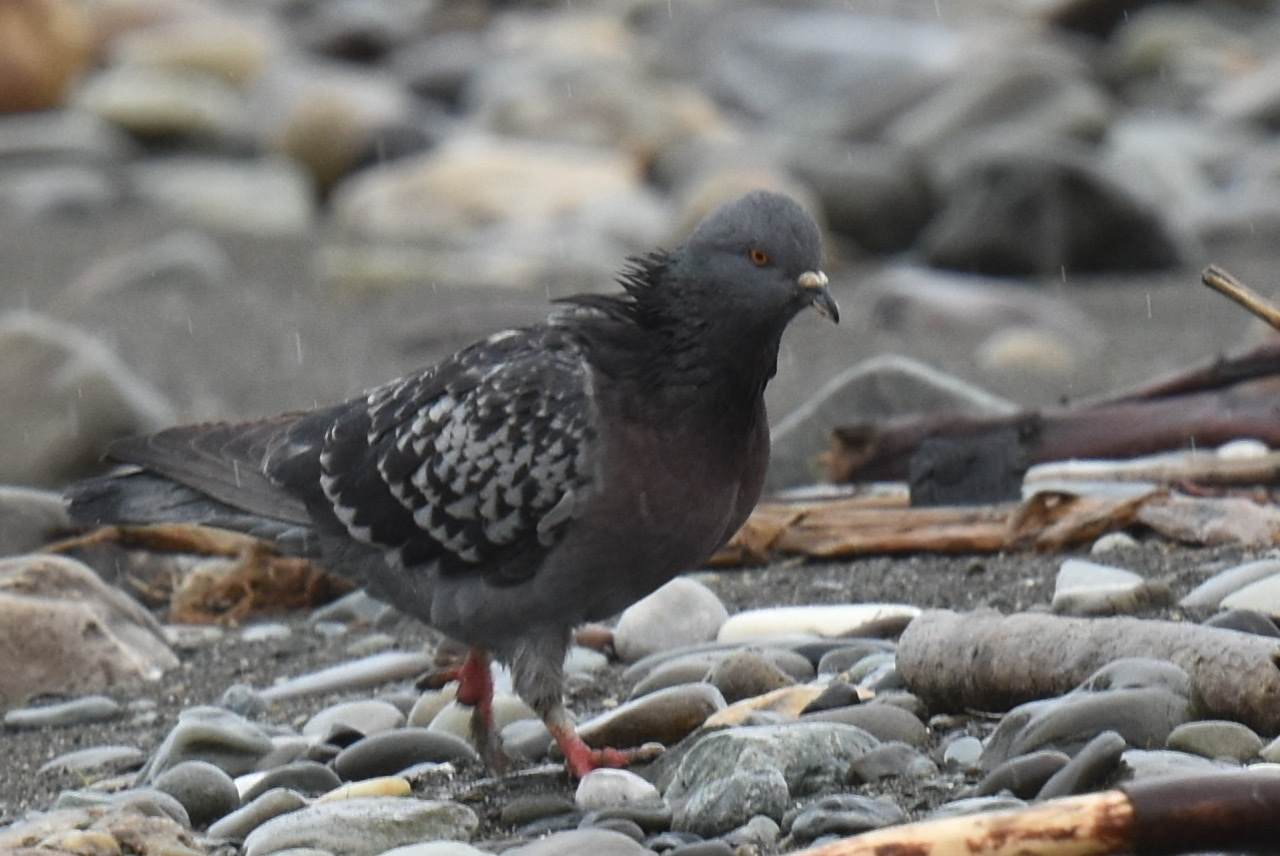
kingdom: Animalia
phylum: Chordata
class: Aves
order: Columbiformes
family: Columbidae
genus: Columba
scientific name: Columba livia
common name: Rock pigeon
